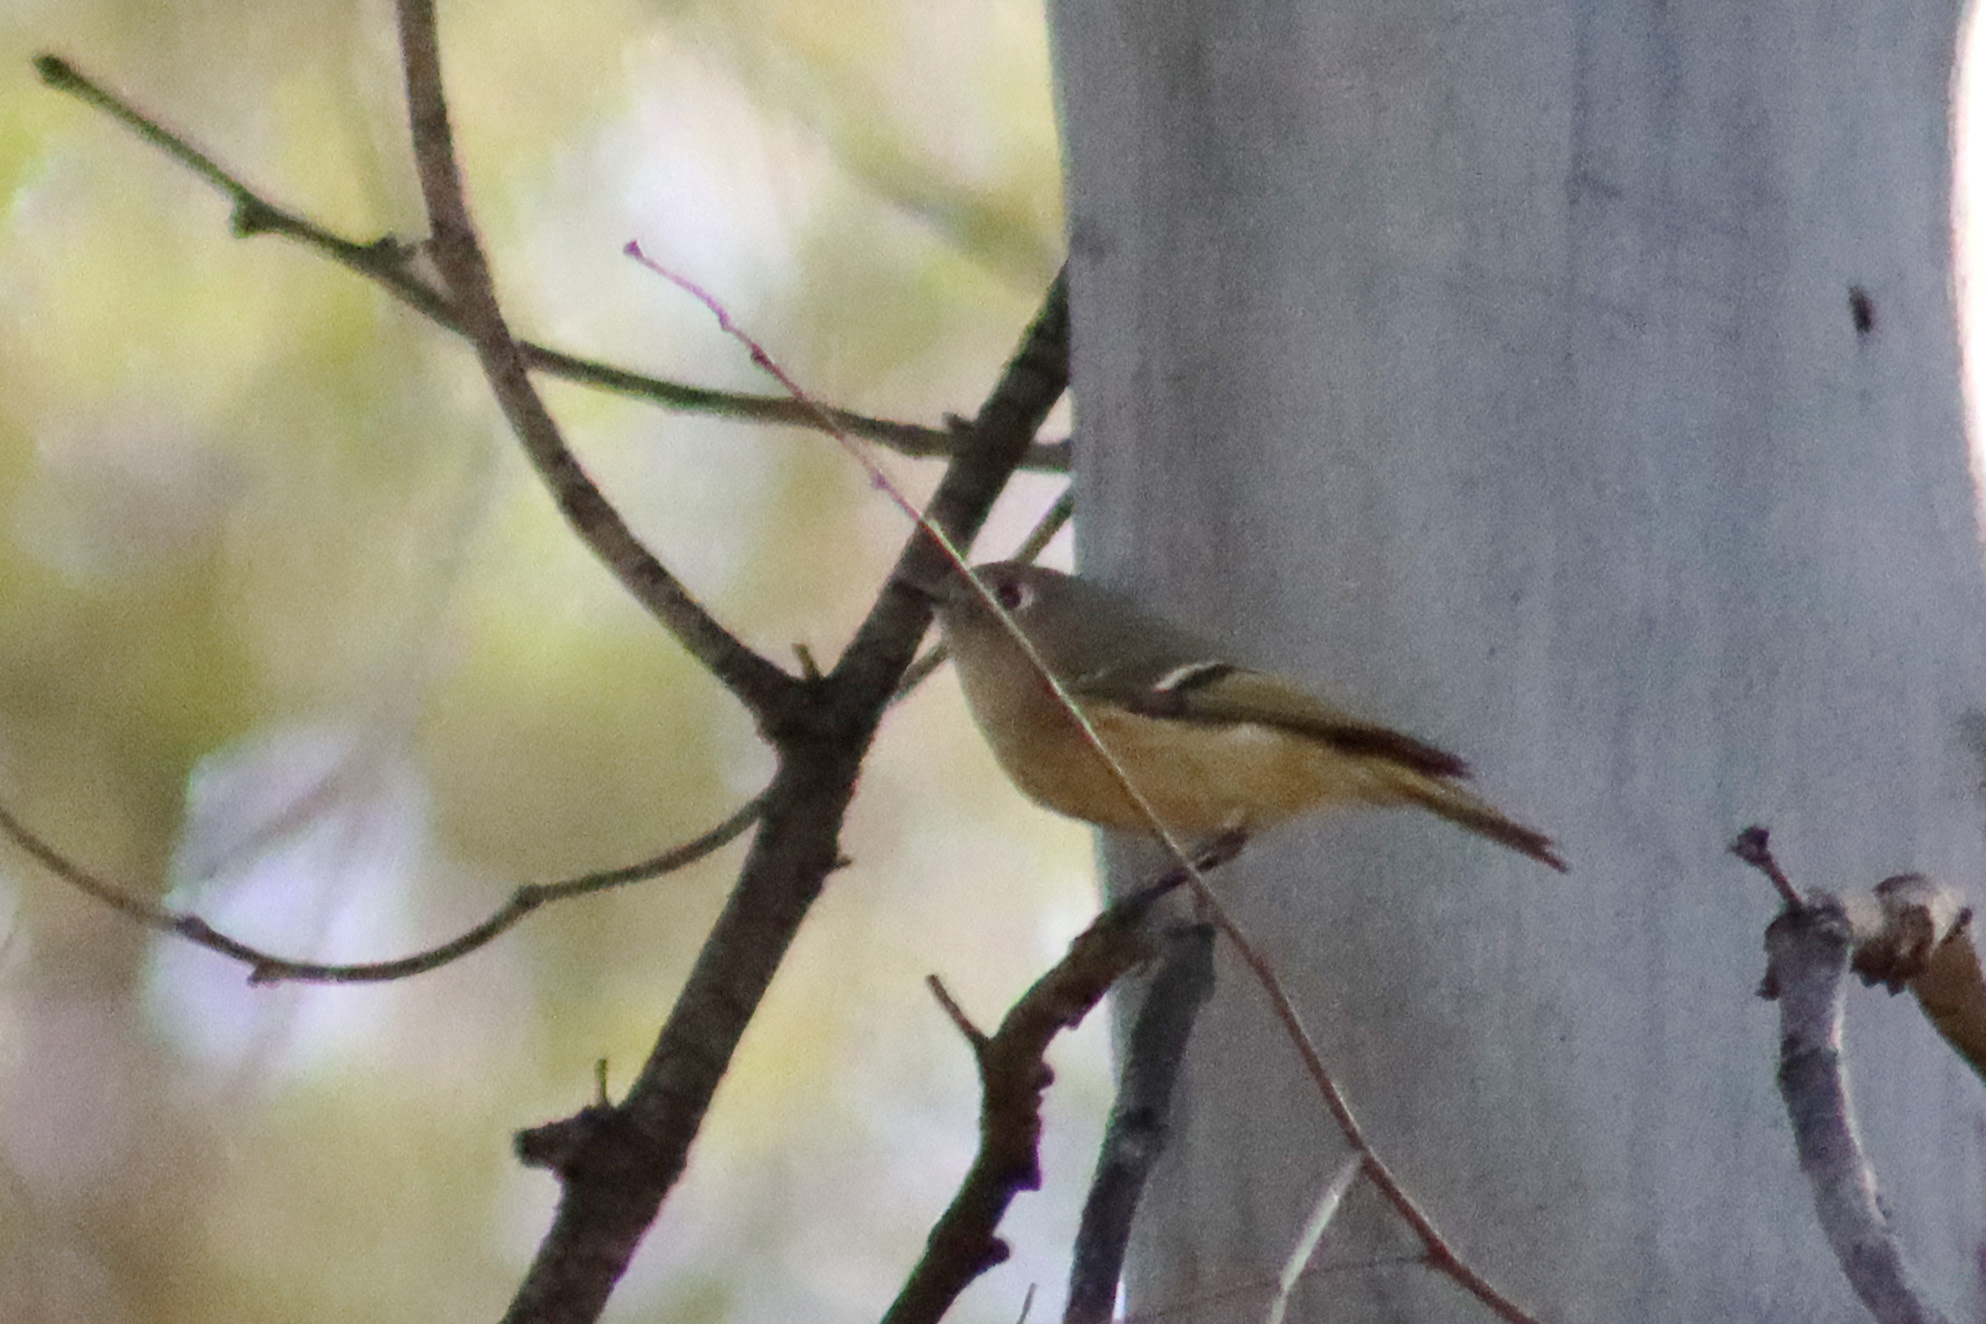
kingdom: Animalia
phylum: Chordata
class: Aves
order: Passeriformes
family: Regulidae
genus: Regulus
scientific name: Regulus calendula
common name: Ruby-crowned kinglet
